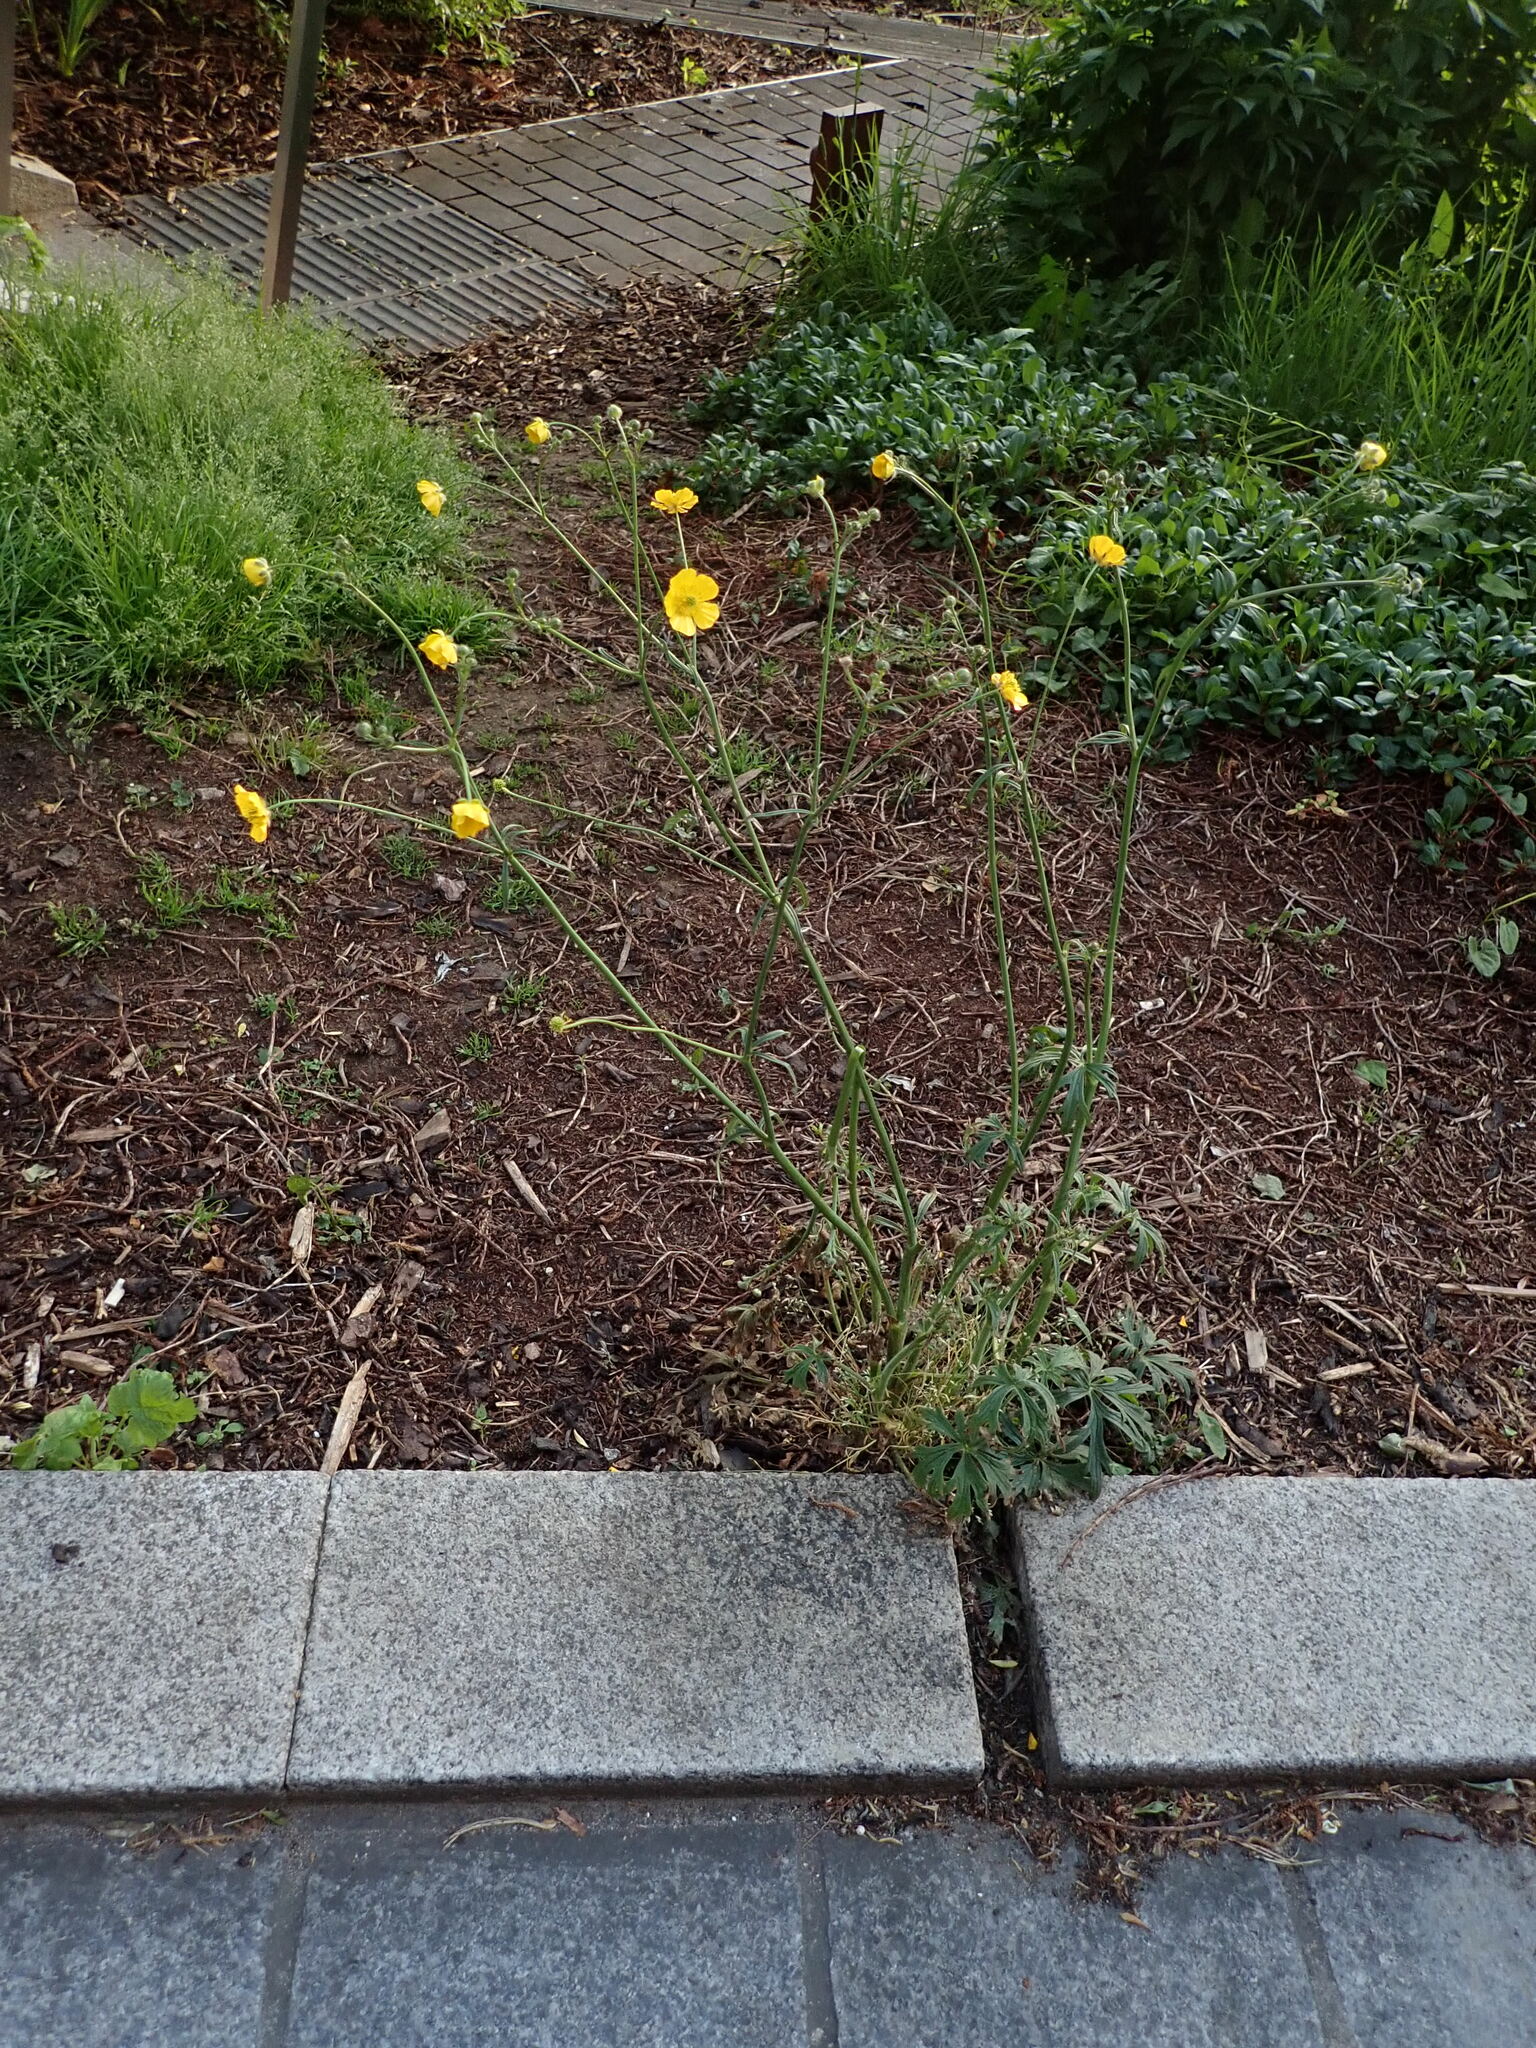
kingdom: Plantae
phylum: Tracheophyta
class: Magnoliopsida
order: Ranunculales
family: Ranunculaceae
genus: Ranunculus
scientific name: Ranunculus acris
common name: Meadow buttercup
